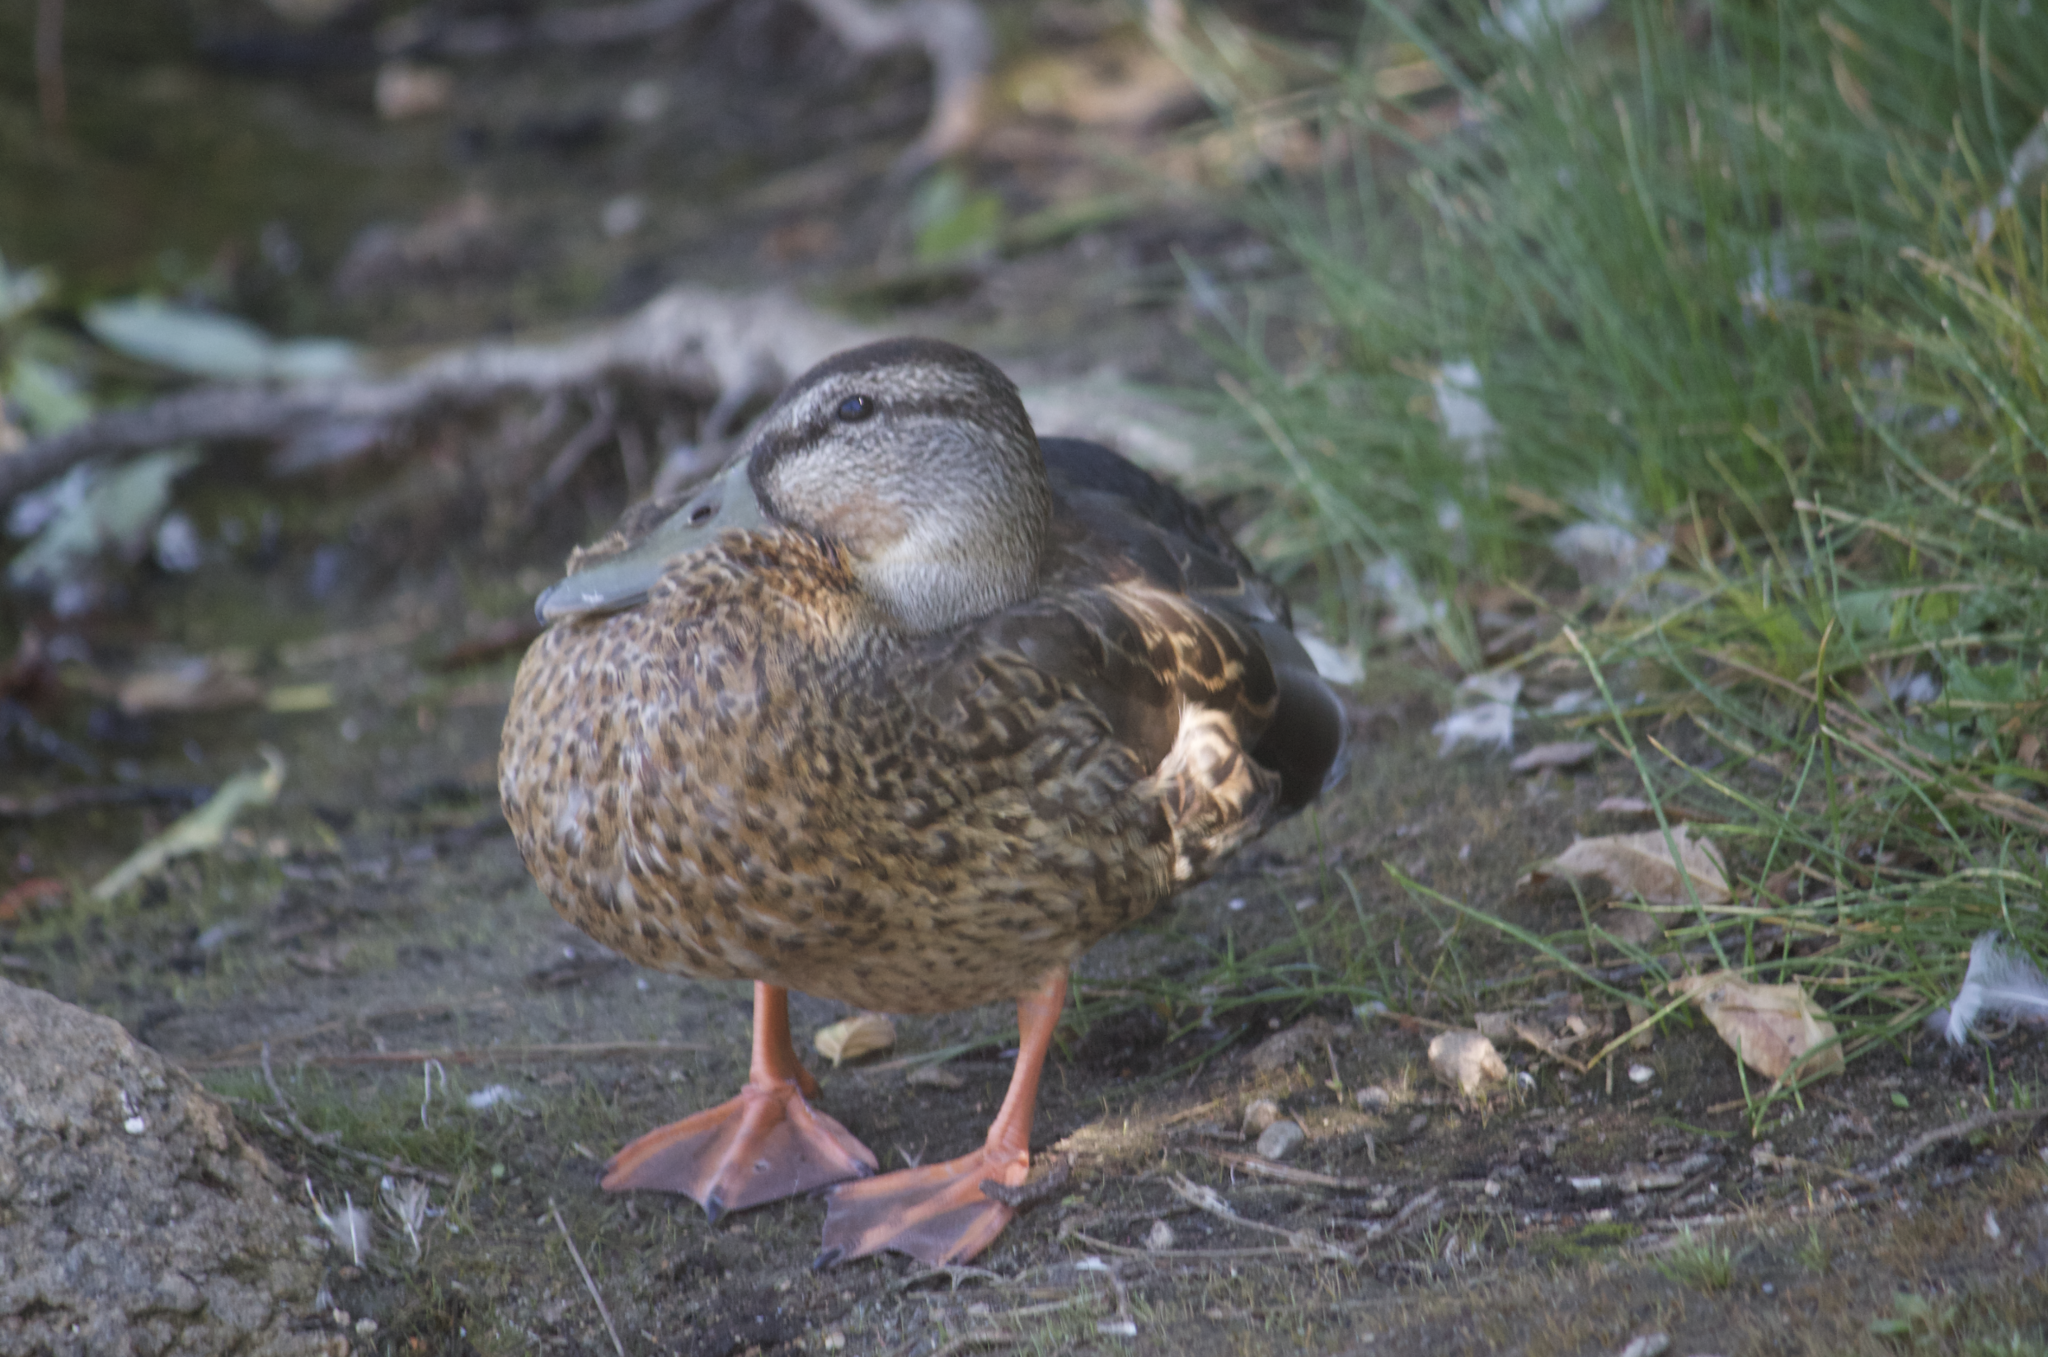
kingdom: Animalia
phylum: Chordata
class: Aves
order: Anseriformes
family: Anatidae
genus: Anas
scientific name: Anas platyrhynchos
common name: Mallard
